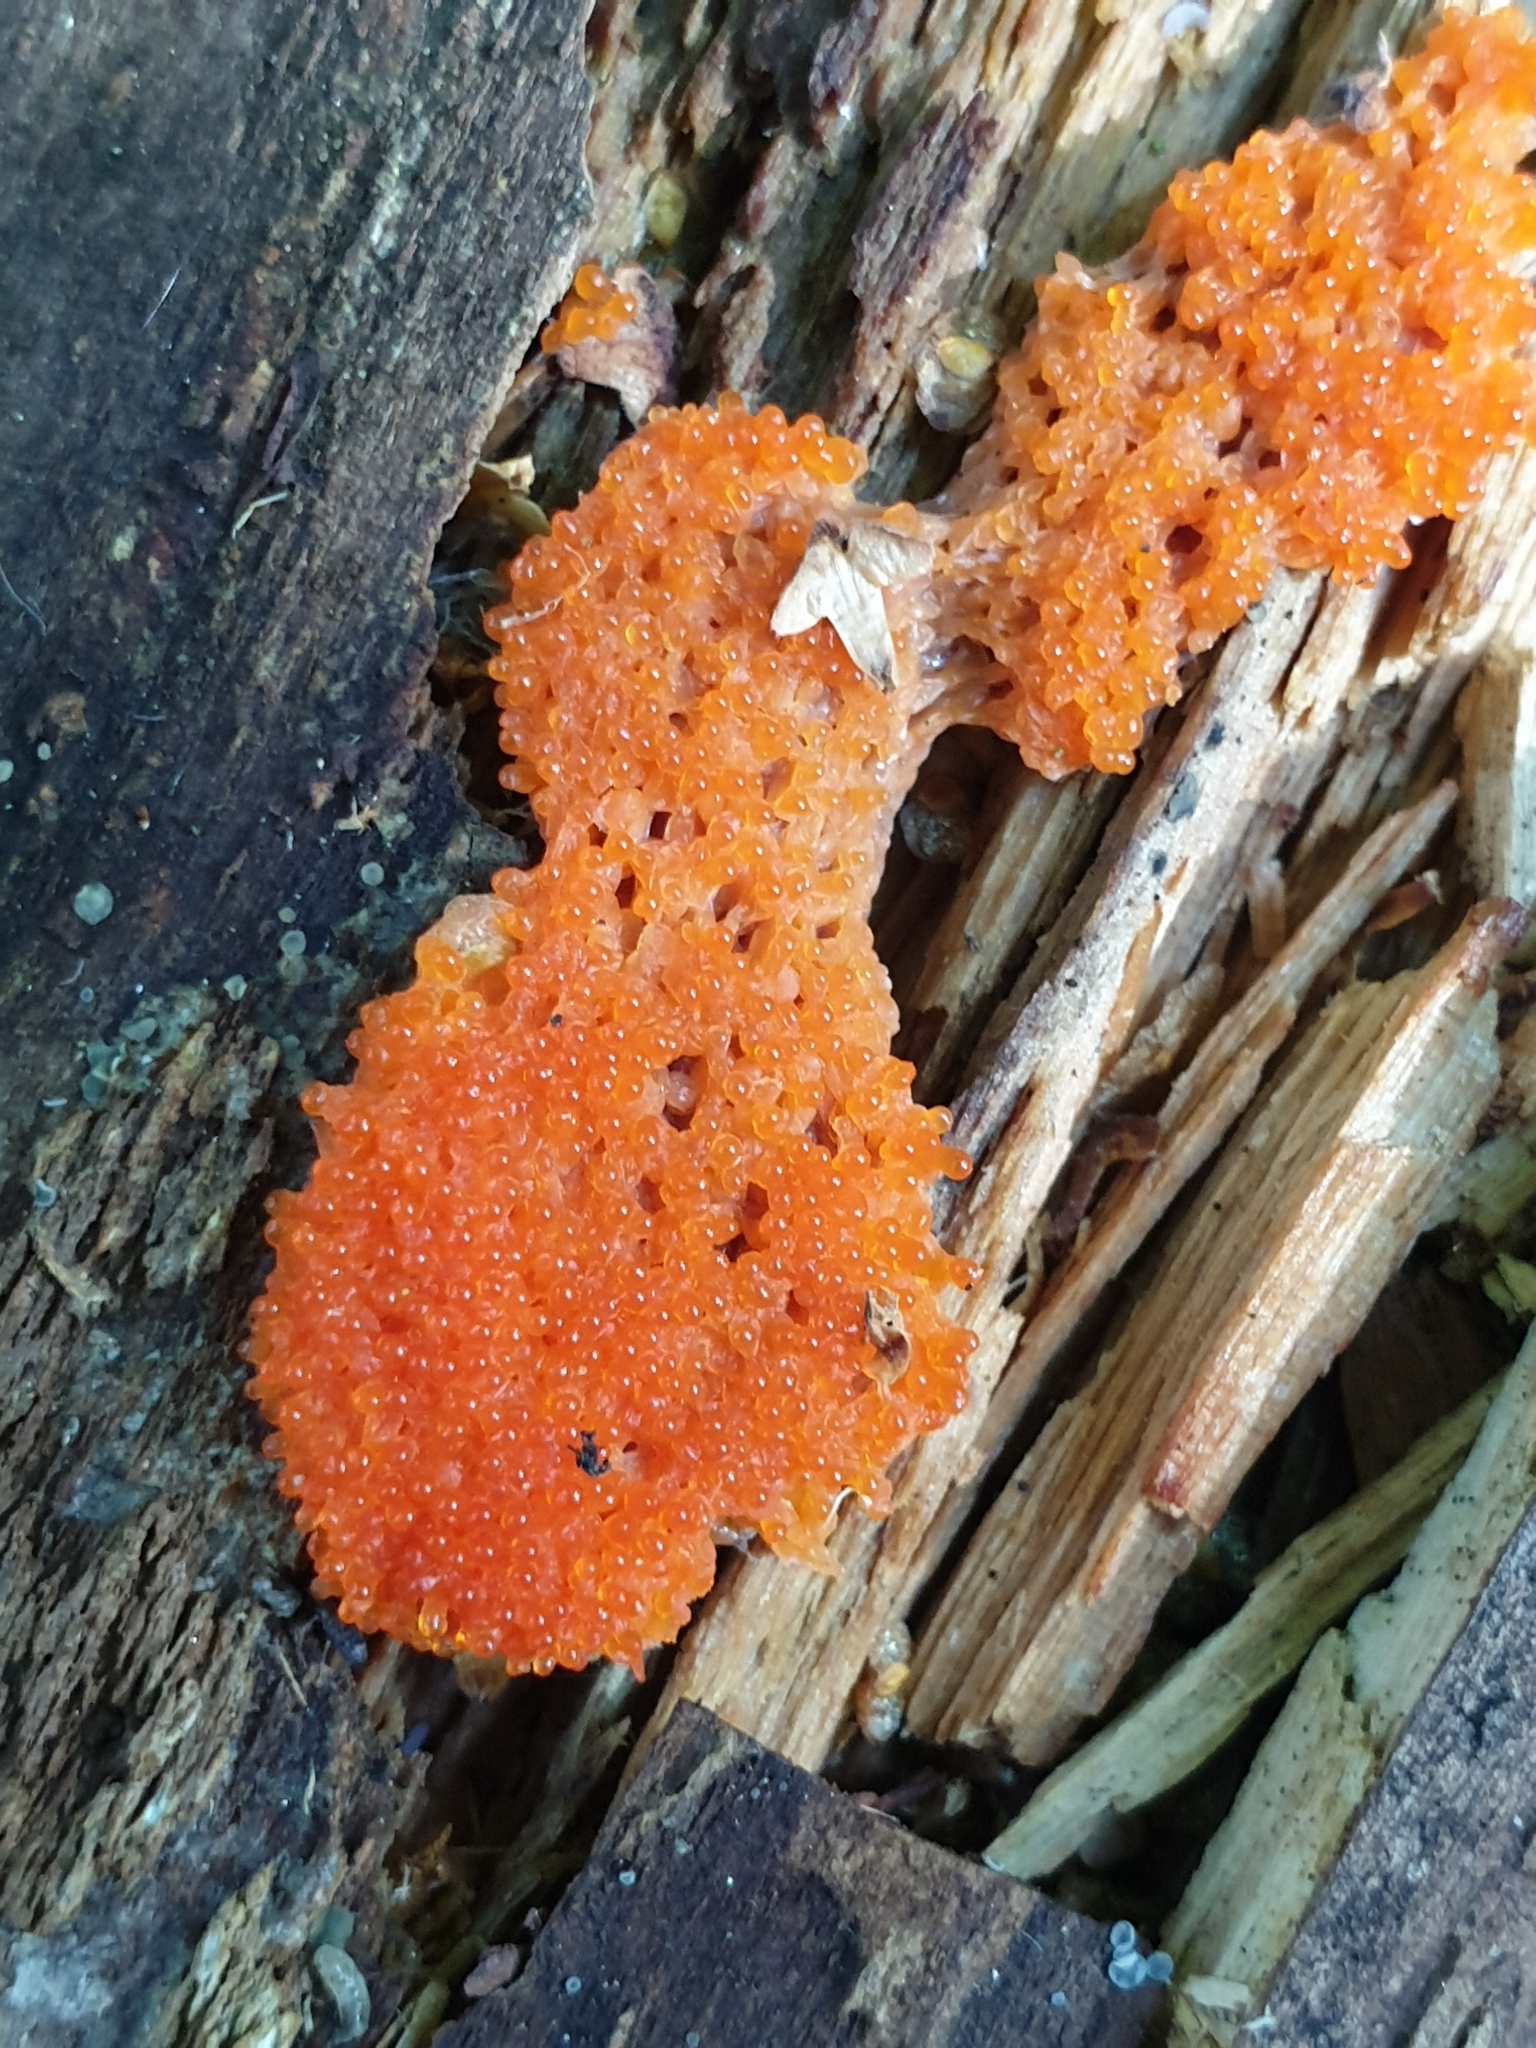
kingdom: Protozoa
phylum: Mycetozoa
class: Myxomycetes
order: Cribrariales
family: Tubiferaceae
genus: Tubifera
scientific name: Tubifera ferruginosa
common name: Red raspberry slime mold
